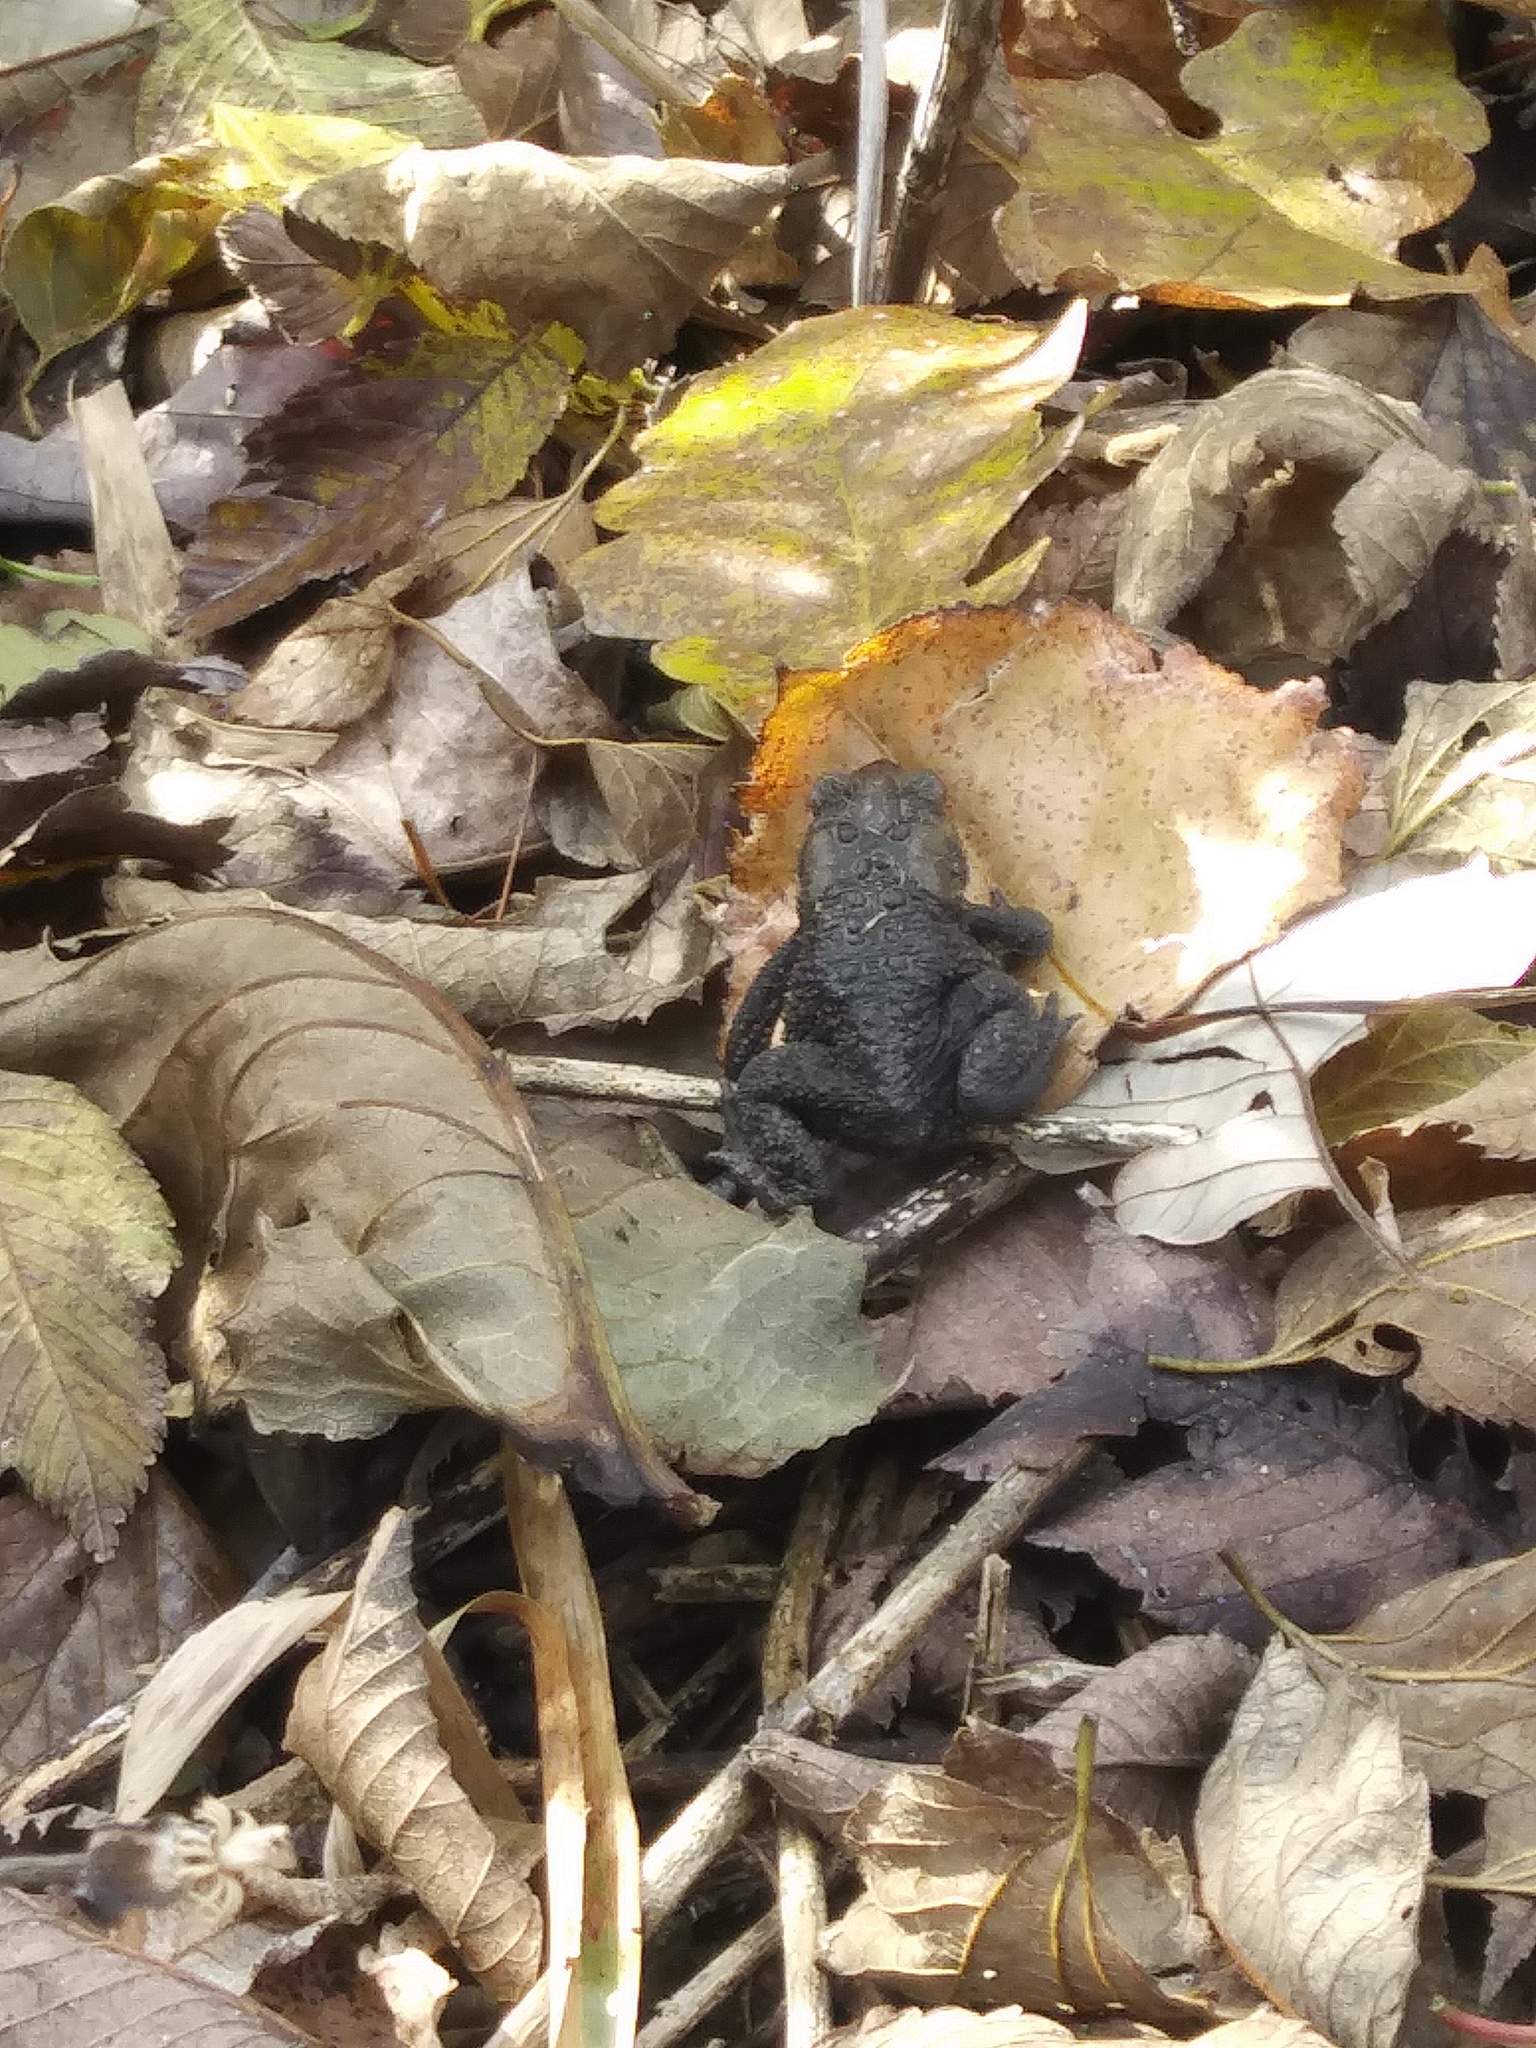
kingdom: Animalia
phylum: Chordata
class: Amphibia
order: Anura
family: Bufonidae
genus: Anaxyrus
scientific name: Anaxyrus americanus
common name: American toad
